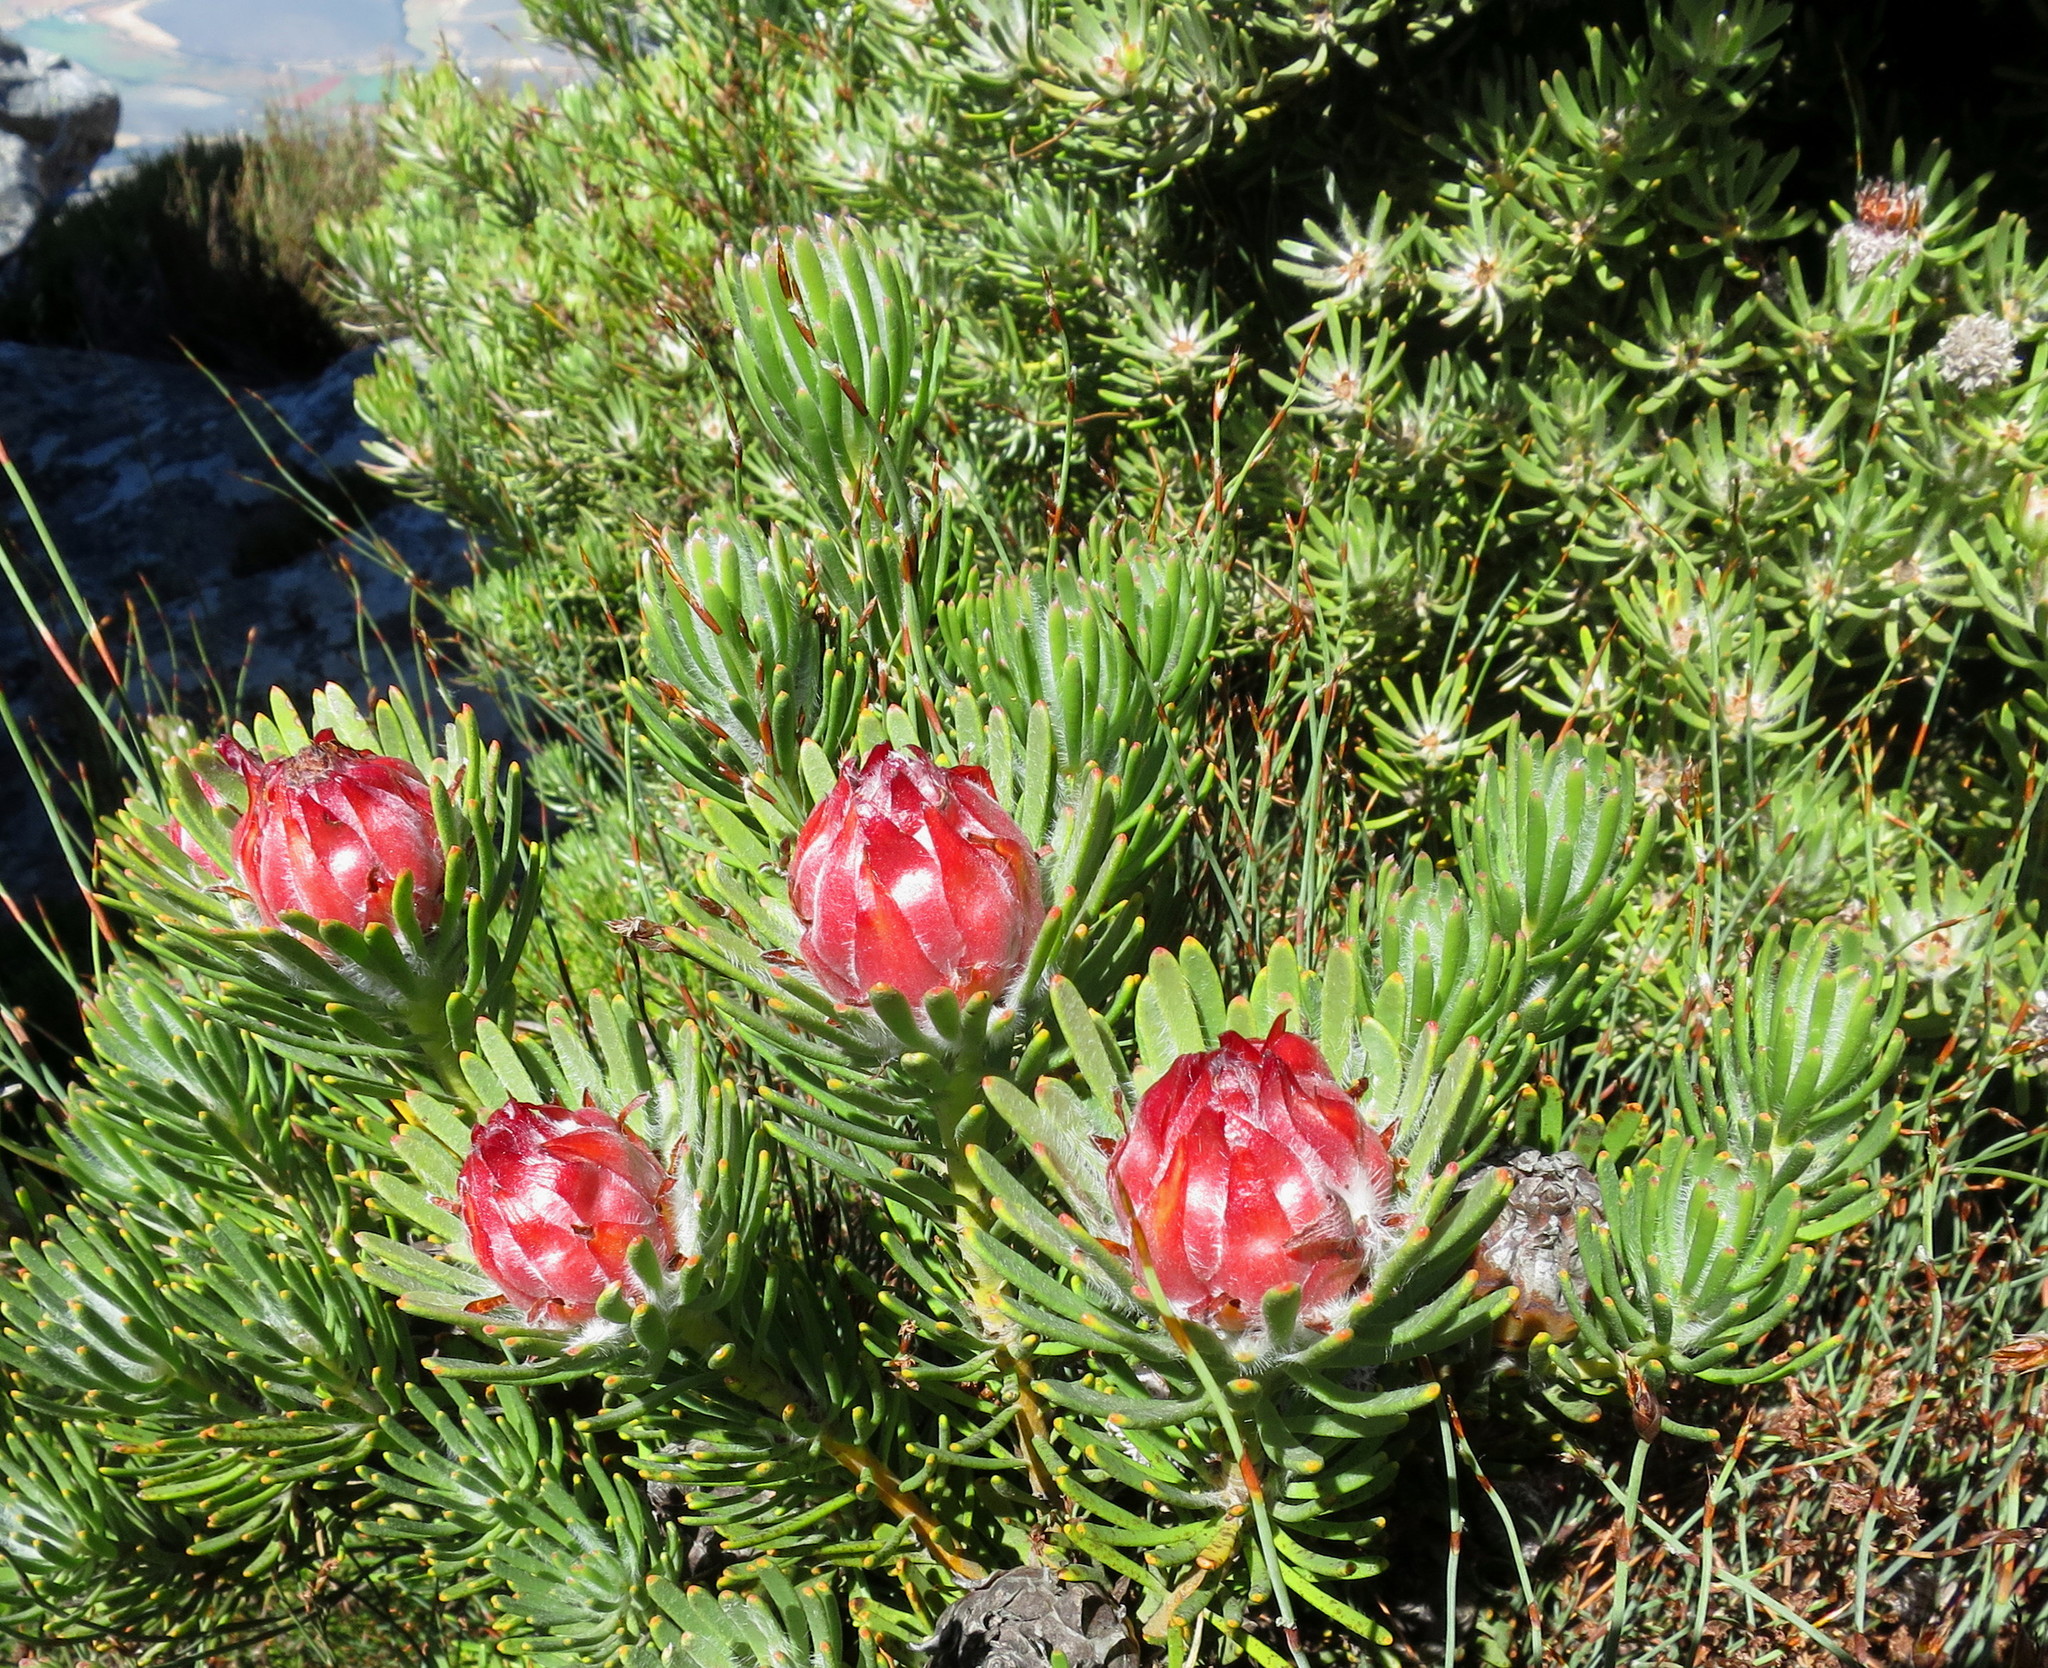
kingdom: Plantae
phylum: Tracheophyta
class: Magnoliopsida
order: Proteales
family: Proteaceae
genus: Leucadendron
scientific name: Leucadendron dregei
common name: Summit conebush
